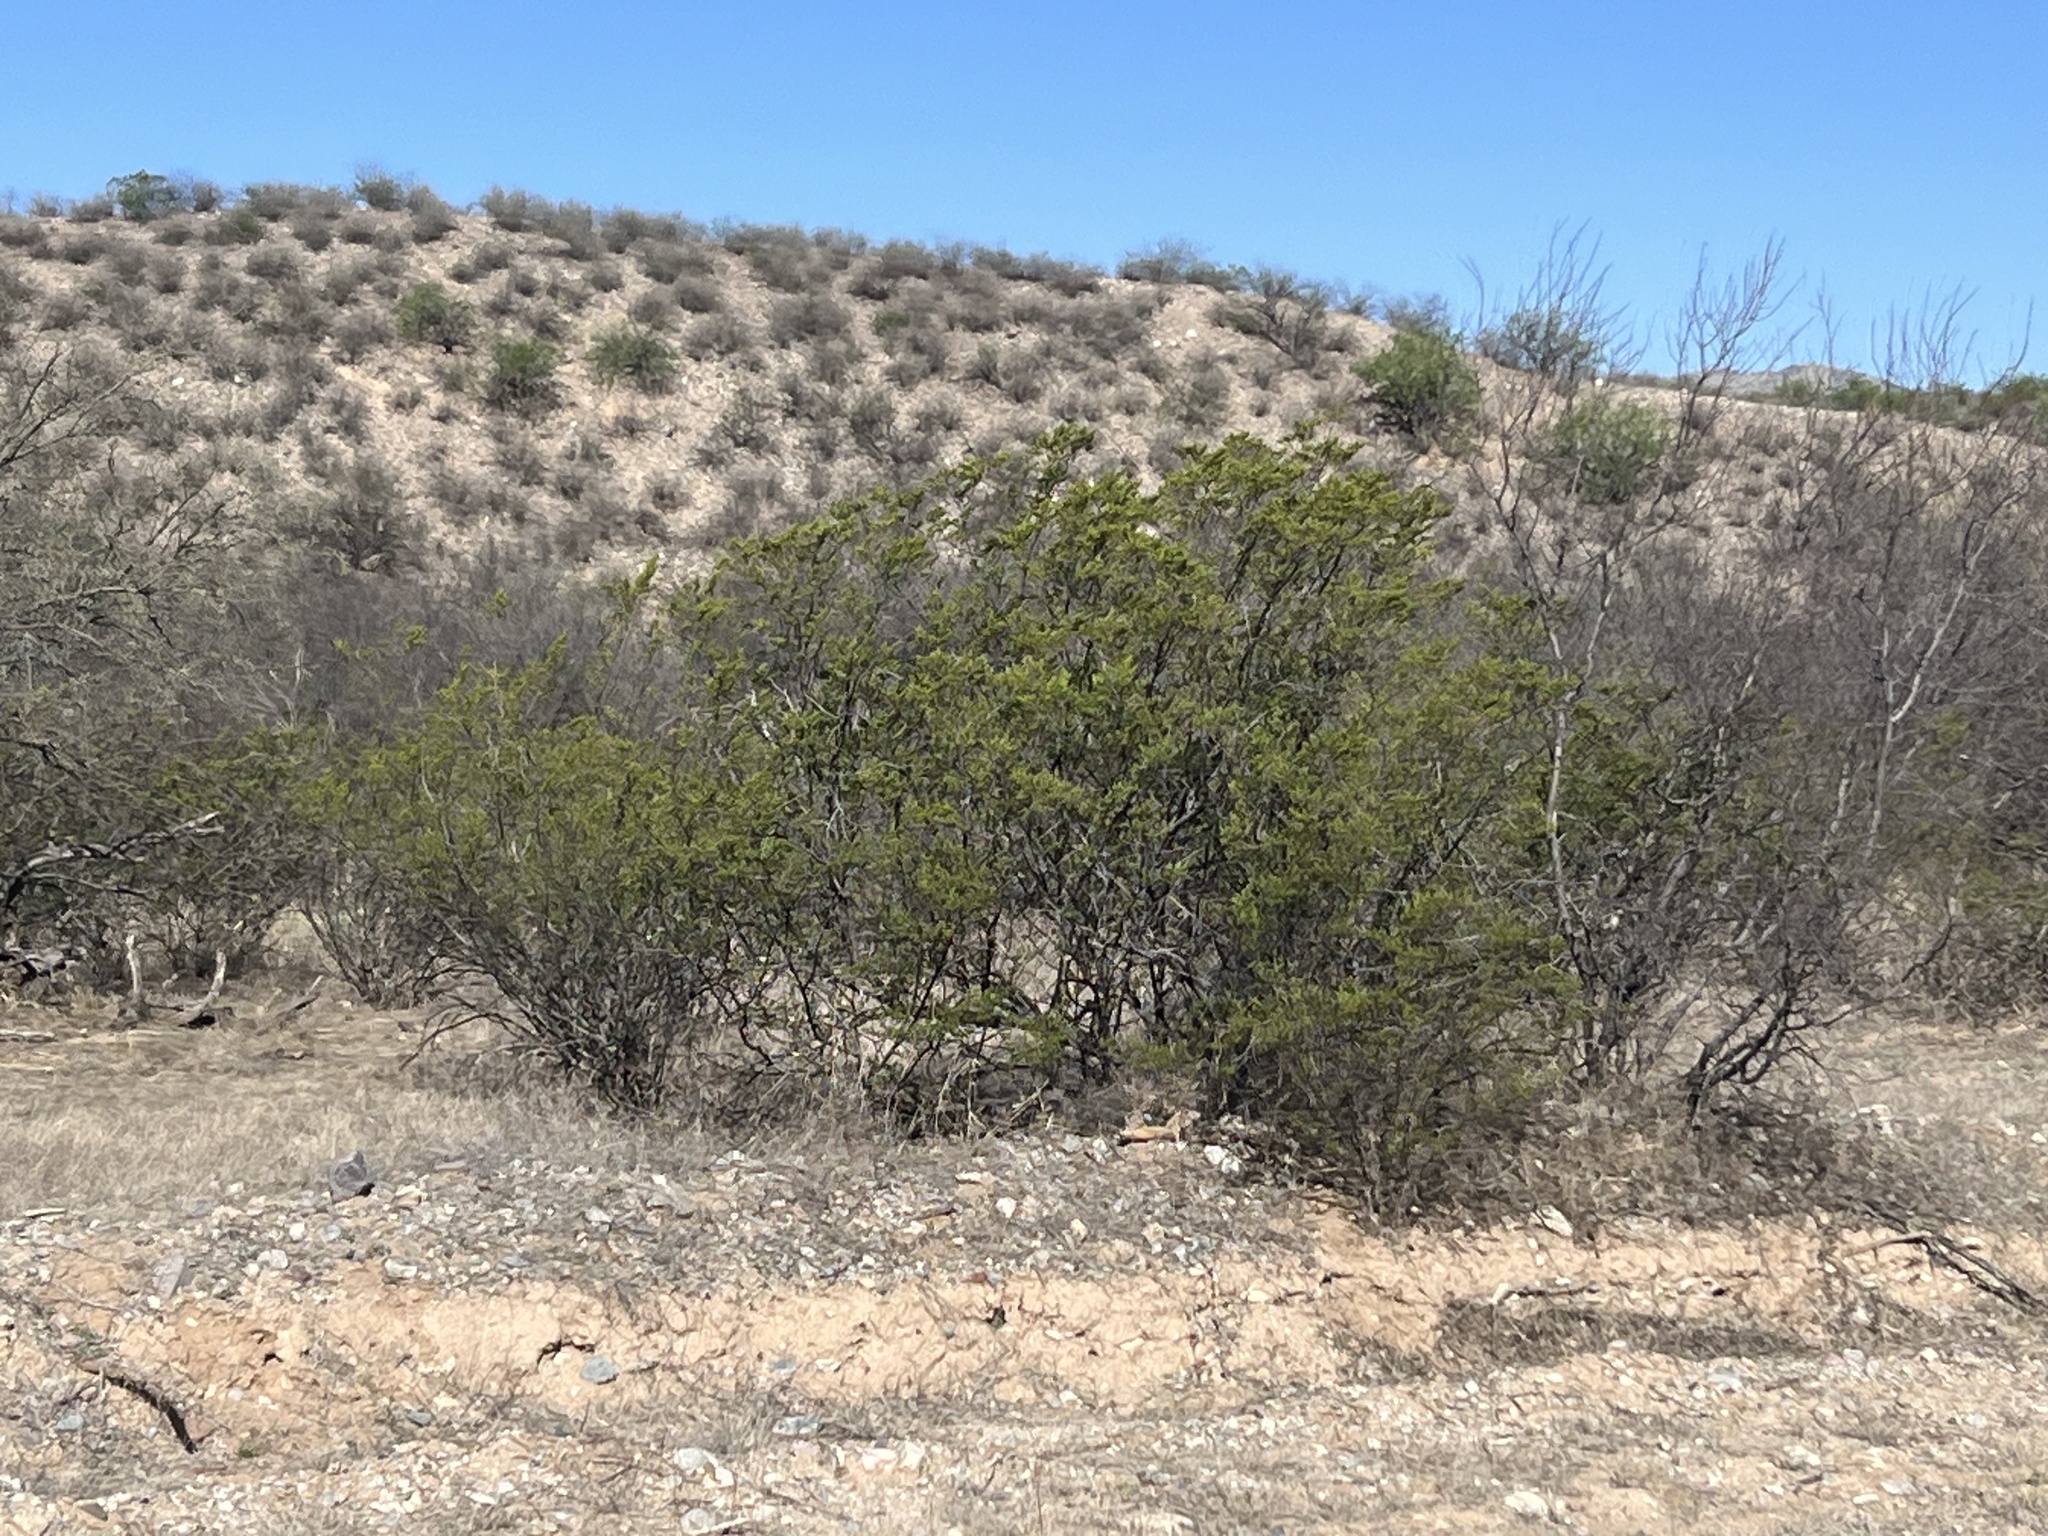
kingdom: Plantae
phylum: Tracheophyta
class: Magnoliopsida
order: Zygophyllales
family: Zygophyllaceae
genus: Larrea
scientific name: Larrea tridentata
